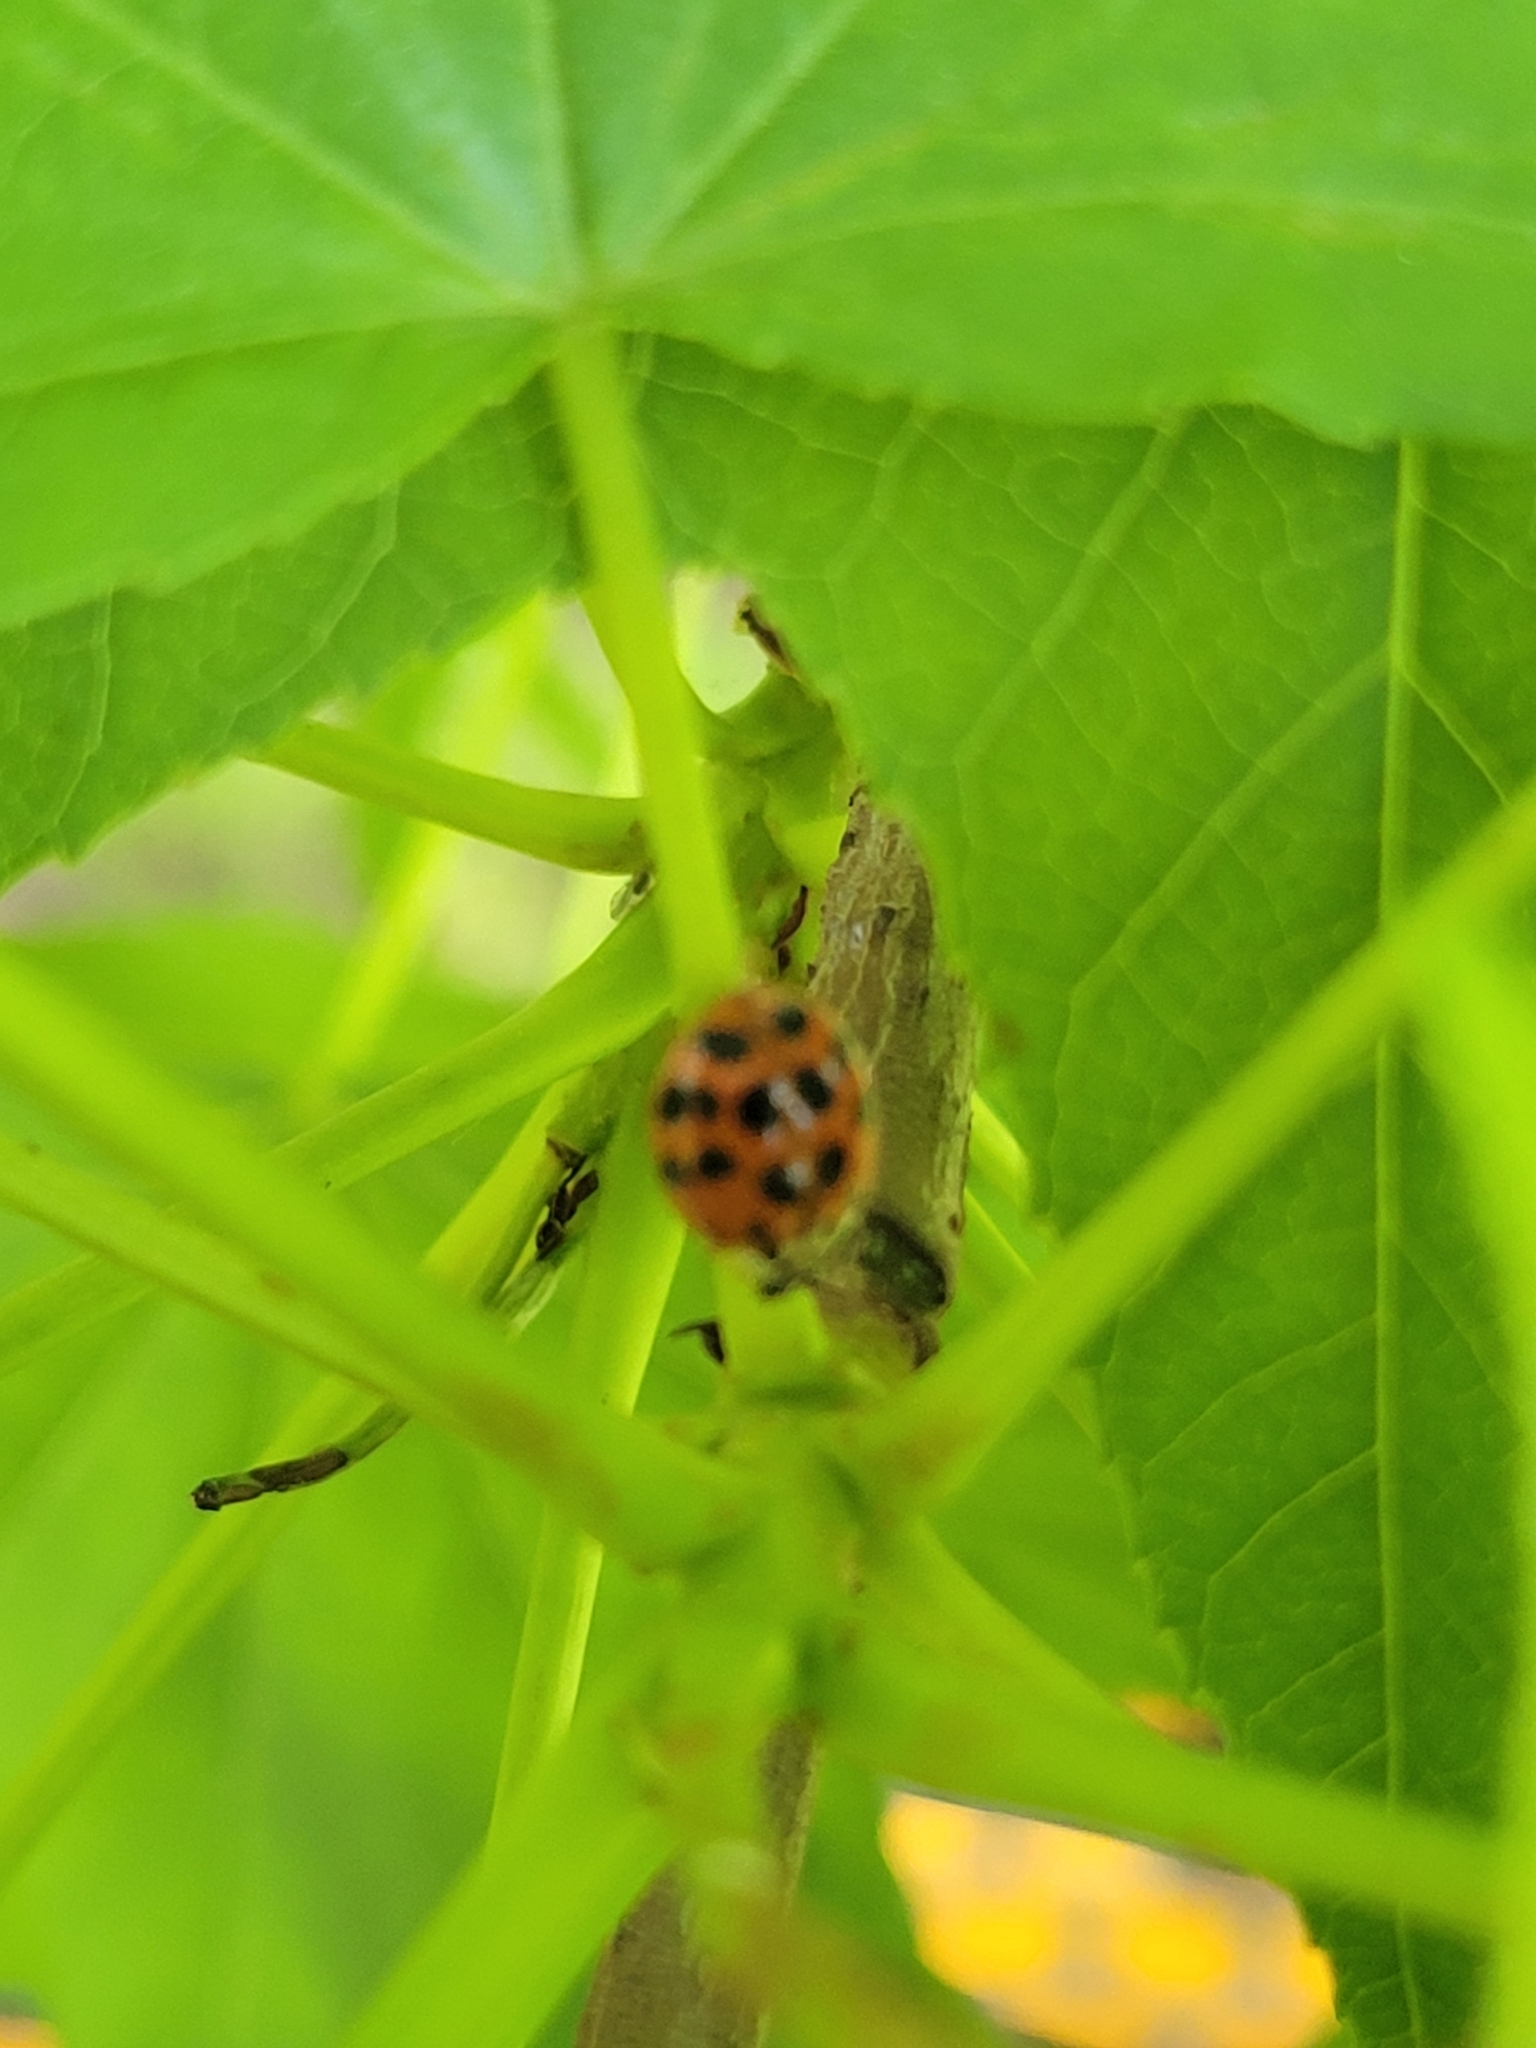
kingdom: Animalia
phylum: Arthropoda
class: Insecta
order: Coleoptera
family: Coccinellidae
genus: Harmonia
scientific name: Harmonia axyridis
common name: Harlequin ladybird
